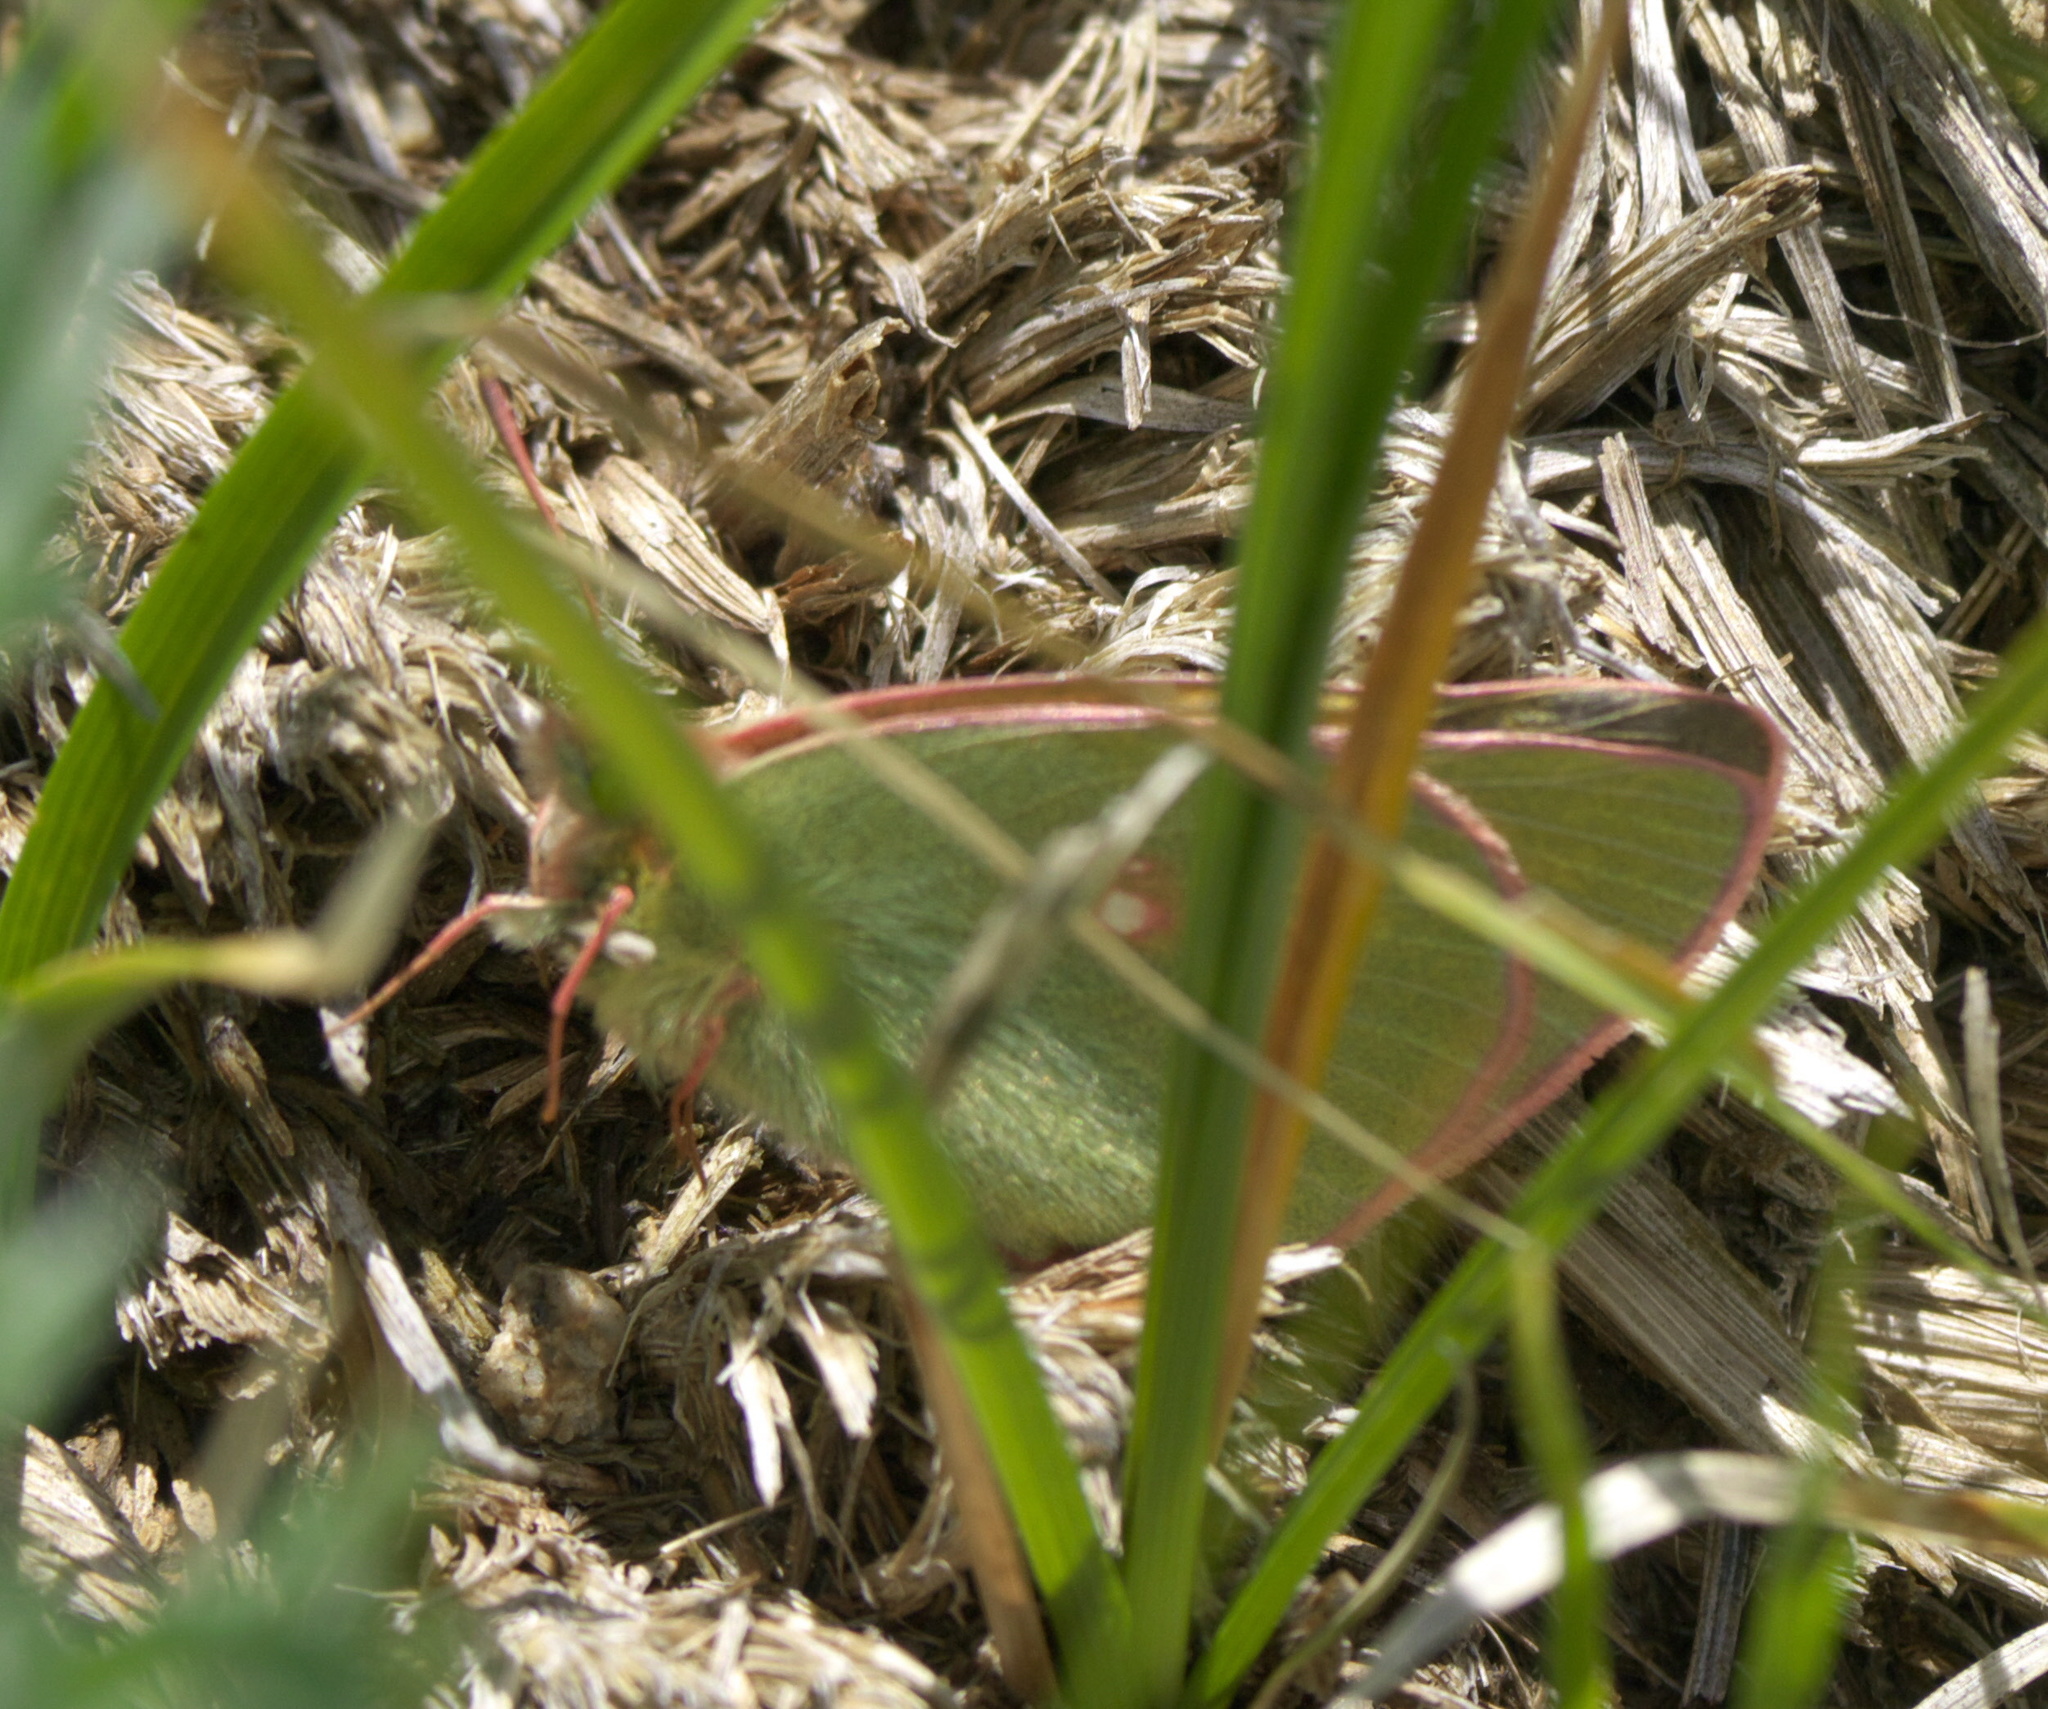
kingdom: Animalia
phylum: Arthropoda
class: Insecta
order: Lepidoptera
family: Pieridae
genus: Colias
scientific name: Colias meadii
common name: Mead's sulphur
